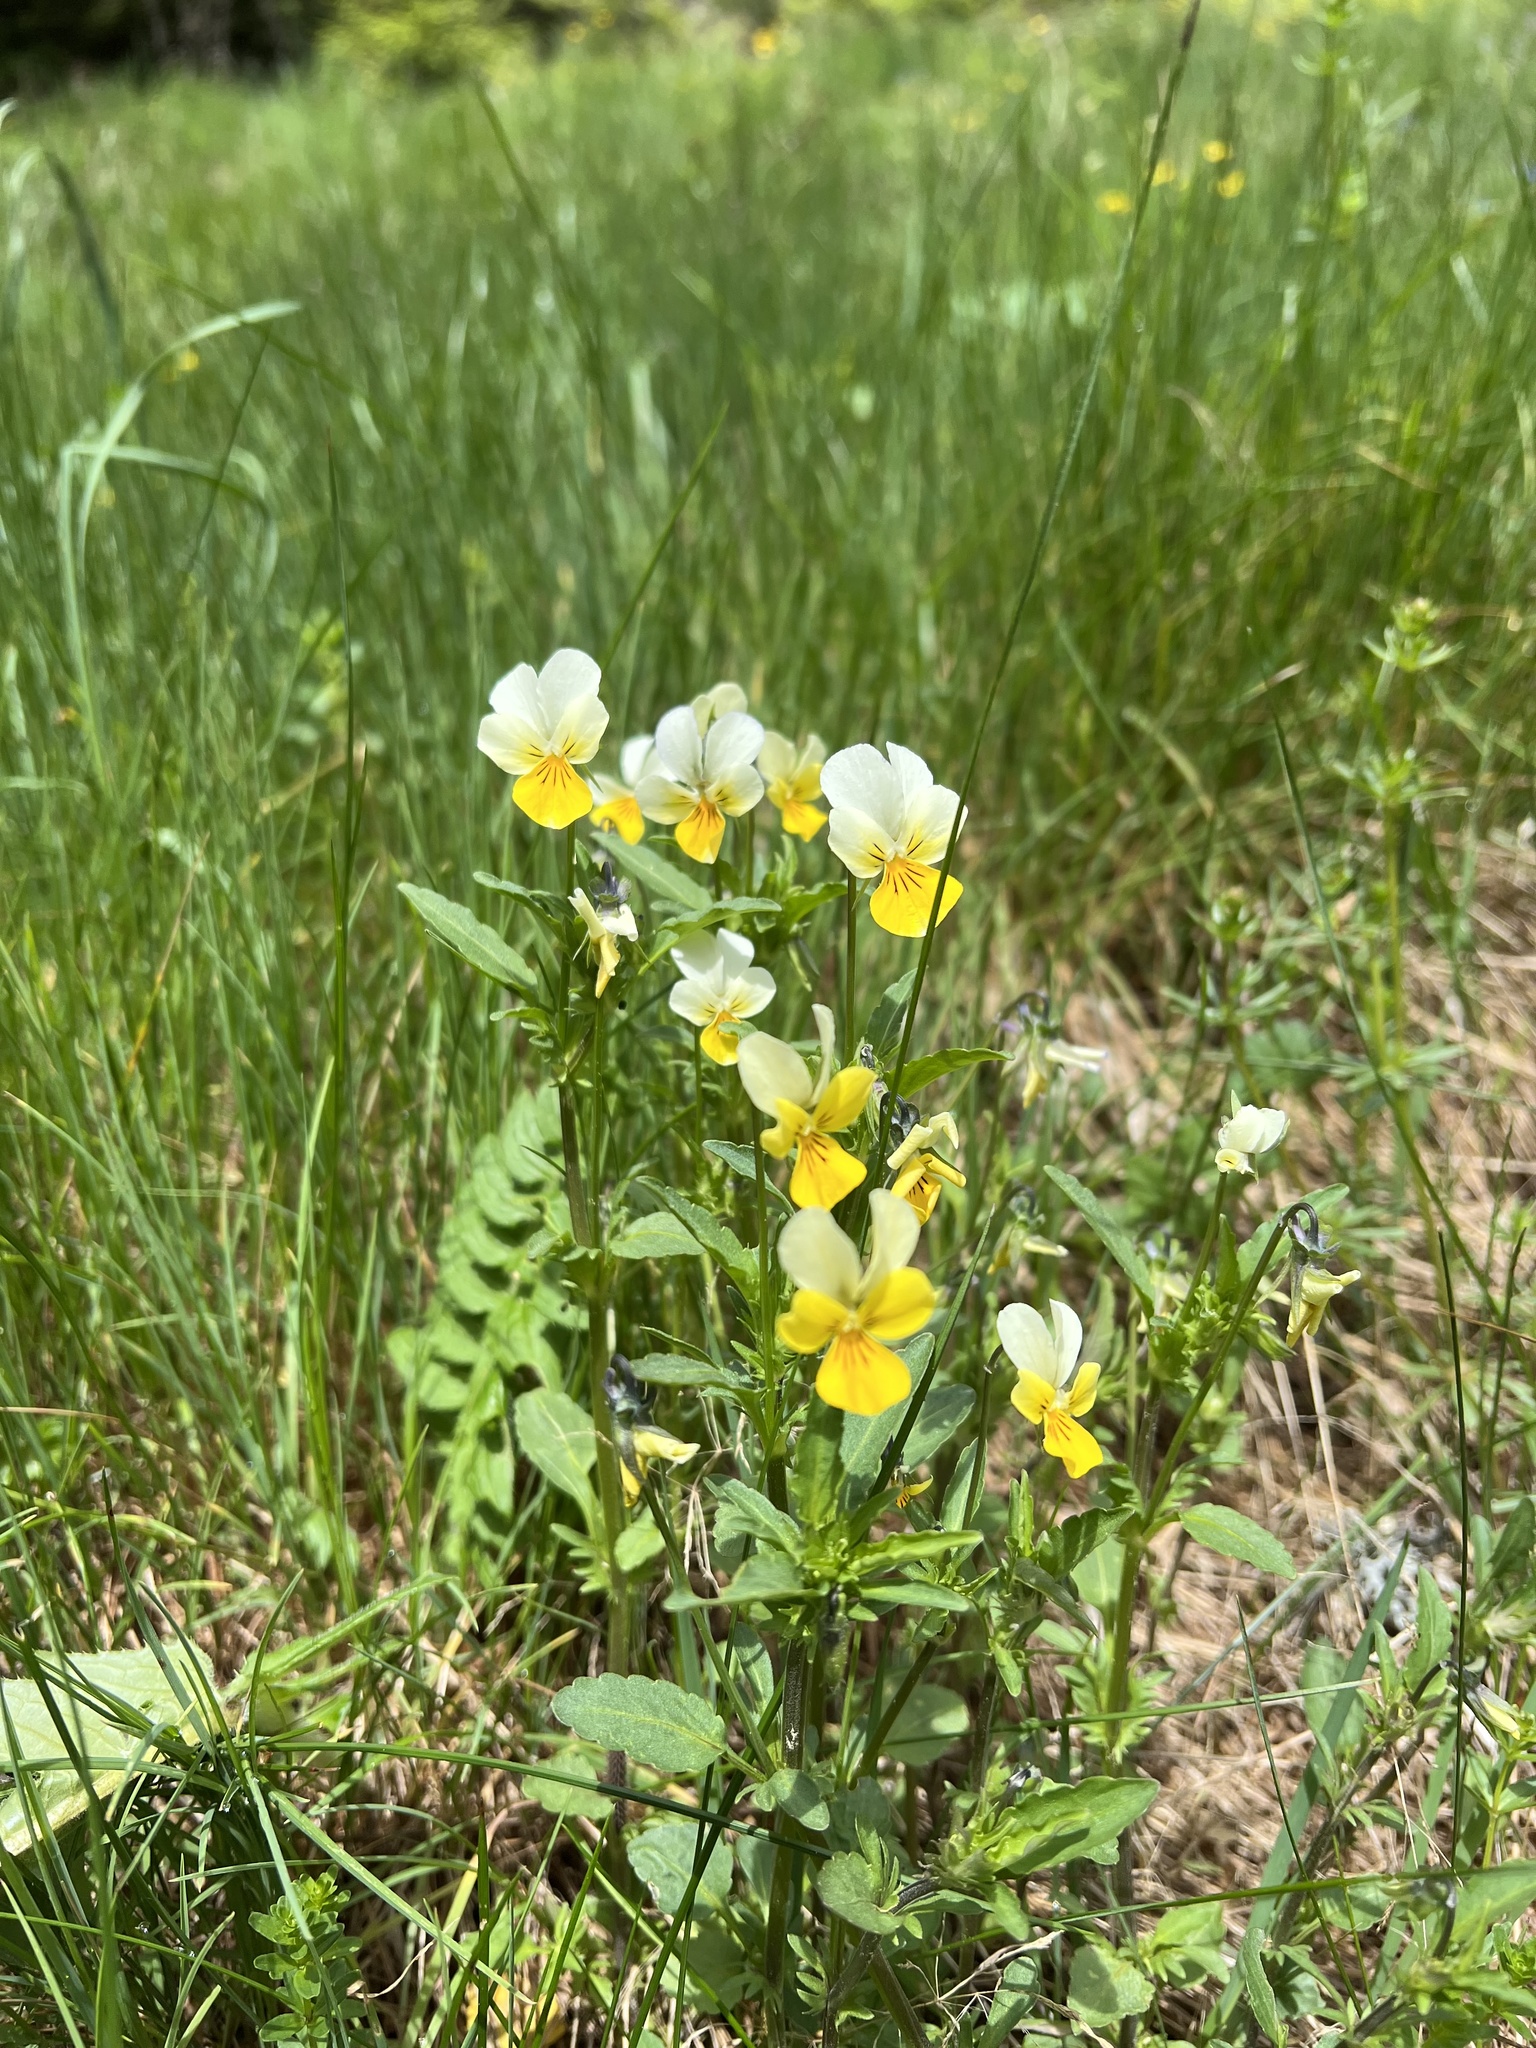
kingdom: Plantae
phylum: Tracheophyta
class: Magnoliopsida
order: Malpighiales
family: Violaceae
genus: Viola
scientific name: Viola arvensis
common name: Field pansy
